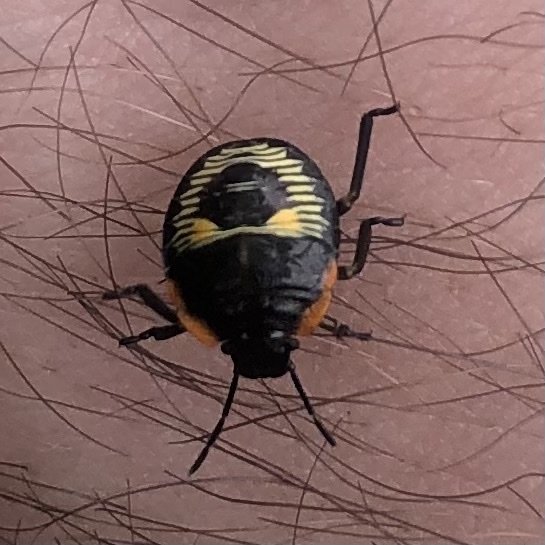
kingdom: Animalia
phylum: Arthropoda
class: Insecta
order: Hemiptera
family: Pentatomidae
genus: Chinavia
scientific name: Chinavia hilaris
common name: Green stink bug
